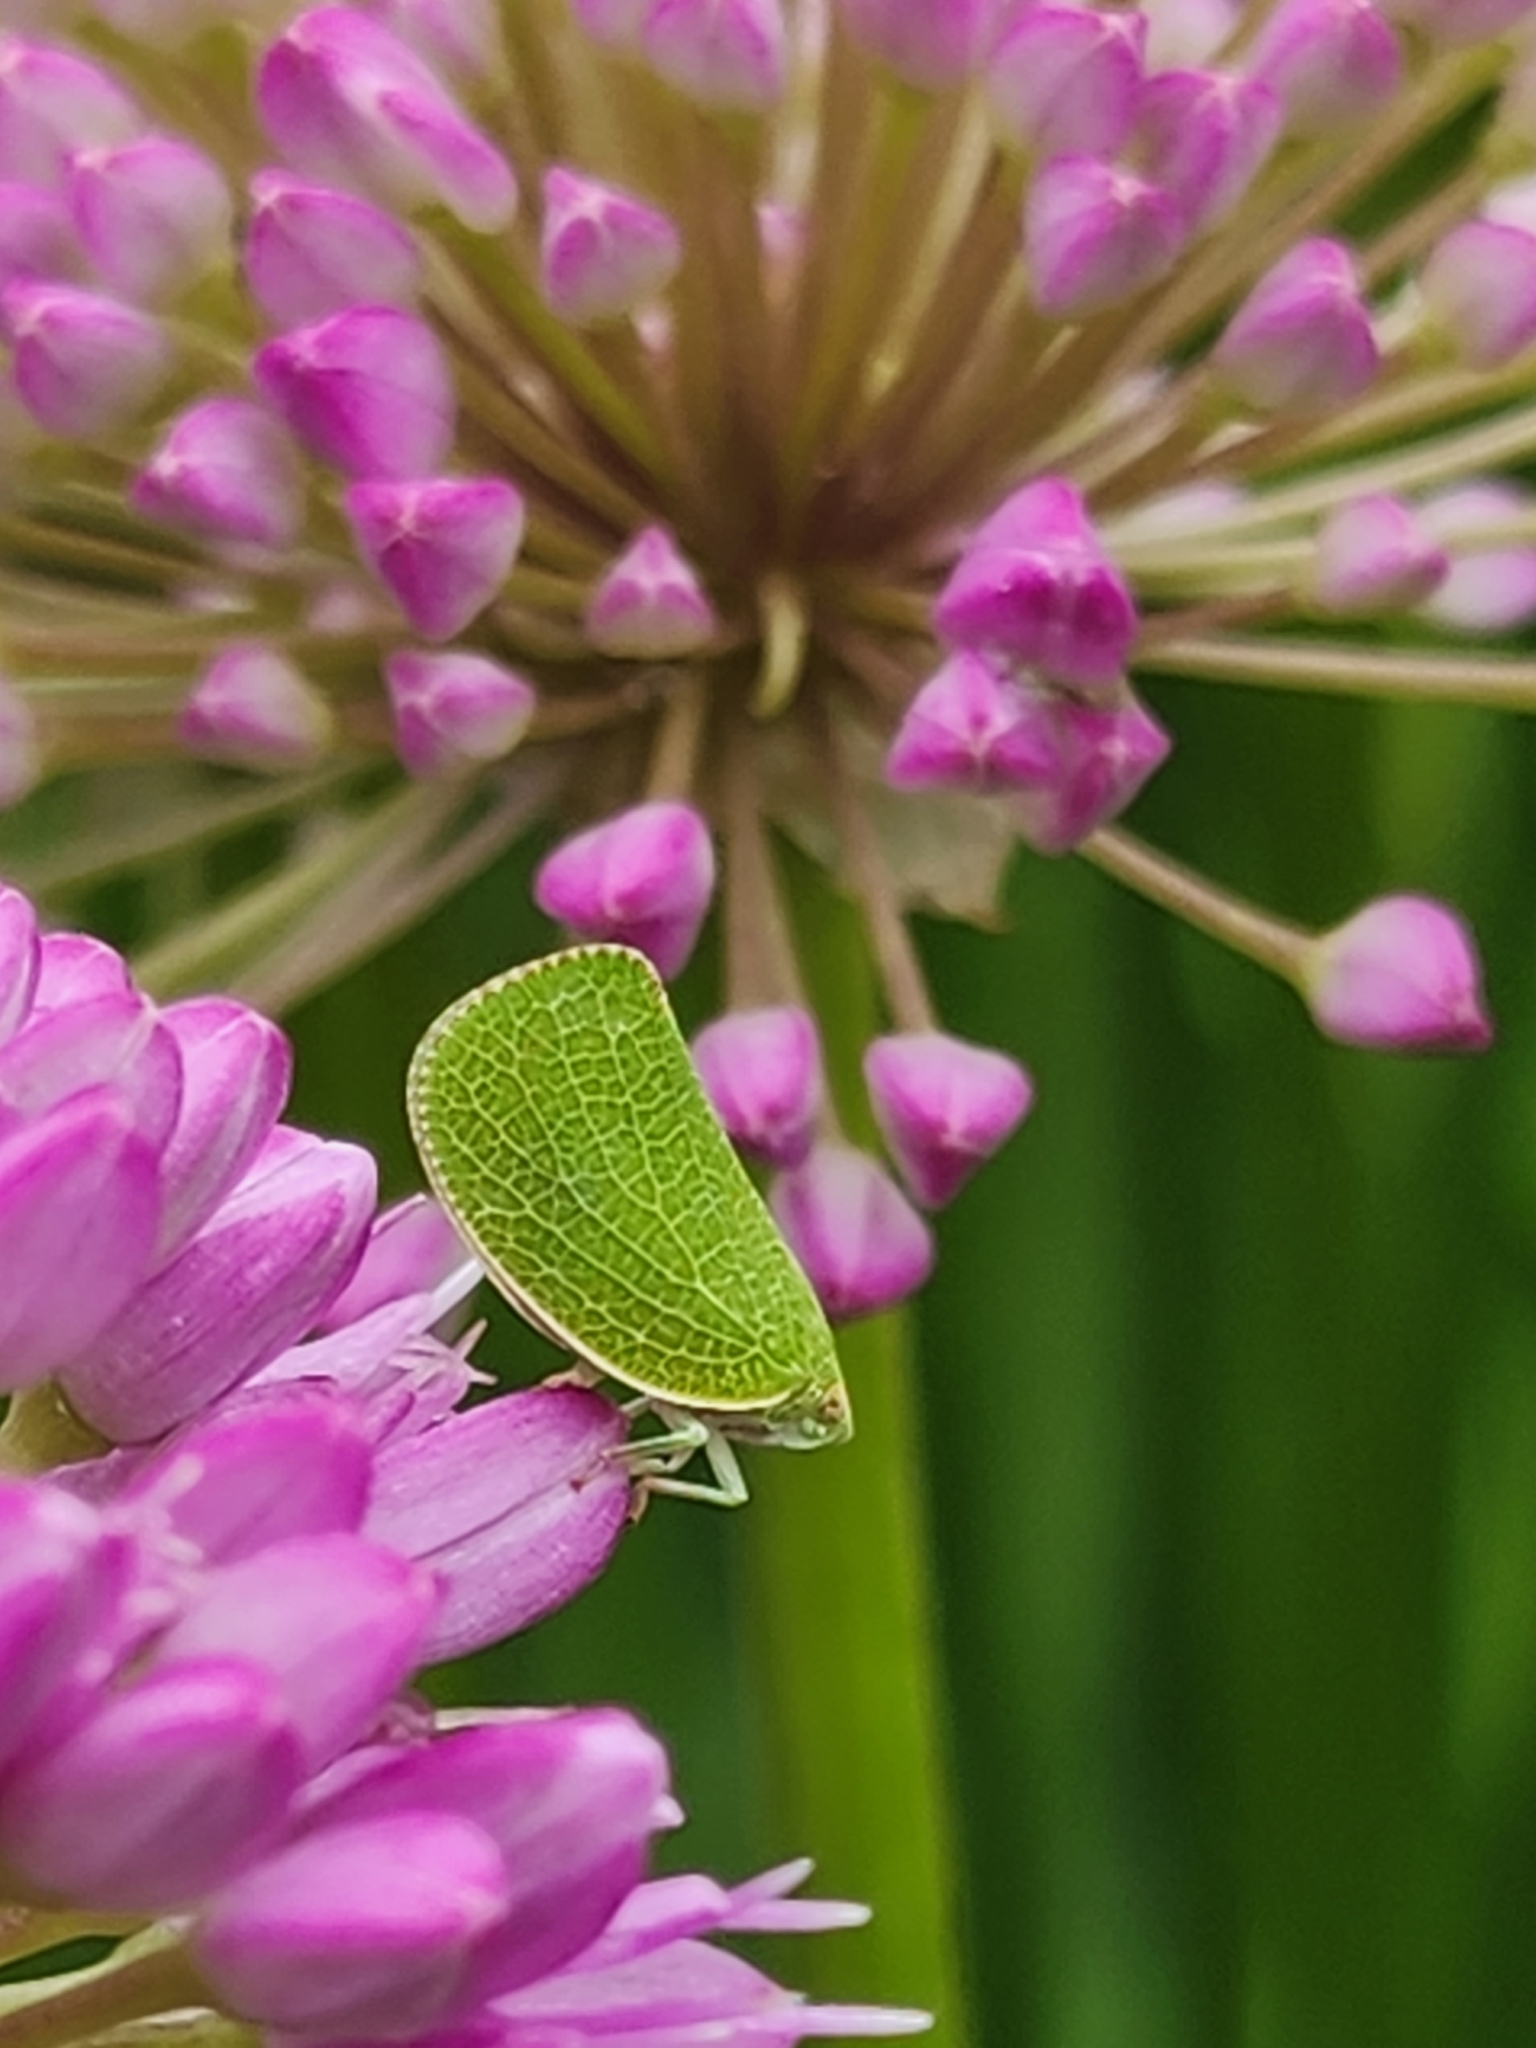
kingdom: Animalia
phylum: Arthropoda
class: Insecta
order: Hemiptera
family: Acanaloniidae
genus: Acanalonia
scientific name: Acanalonia conica
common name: Green cone-headed planthopper
